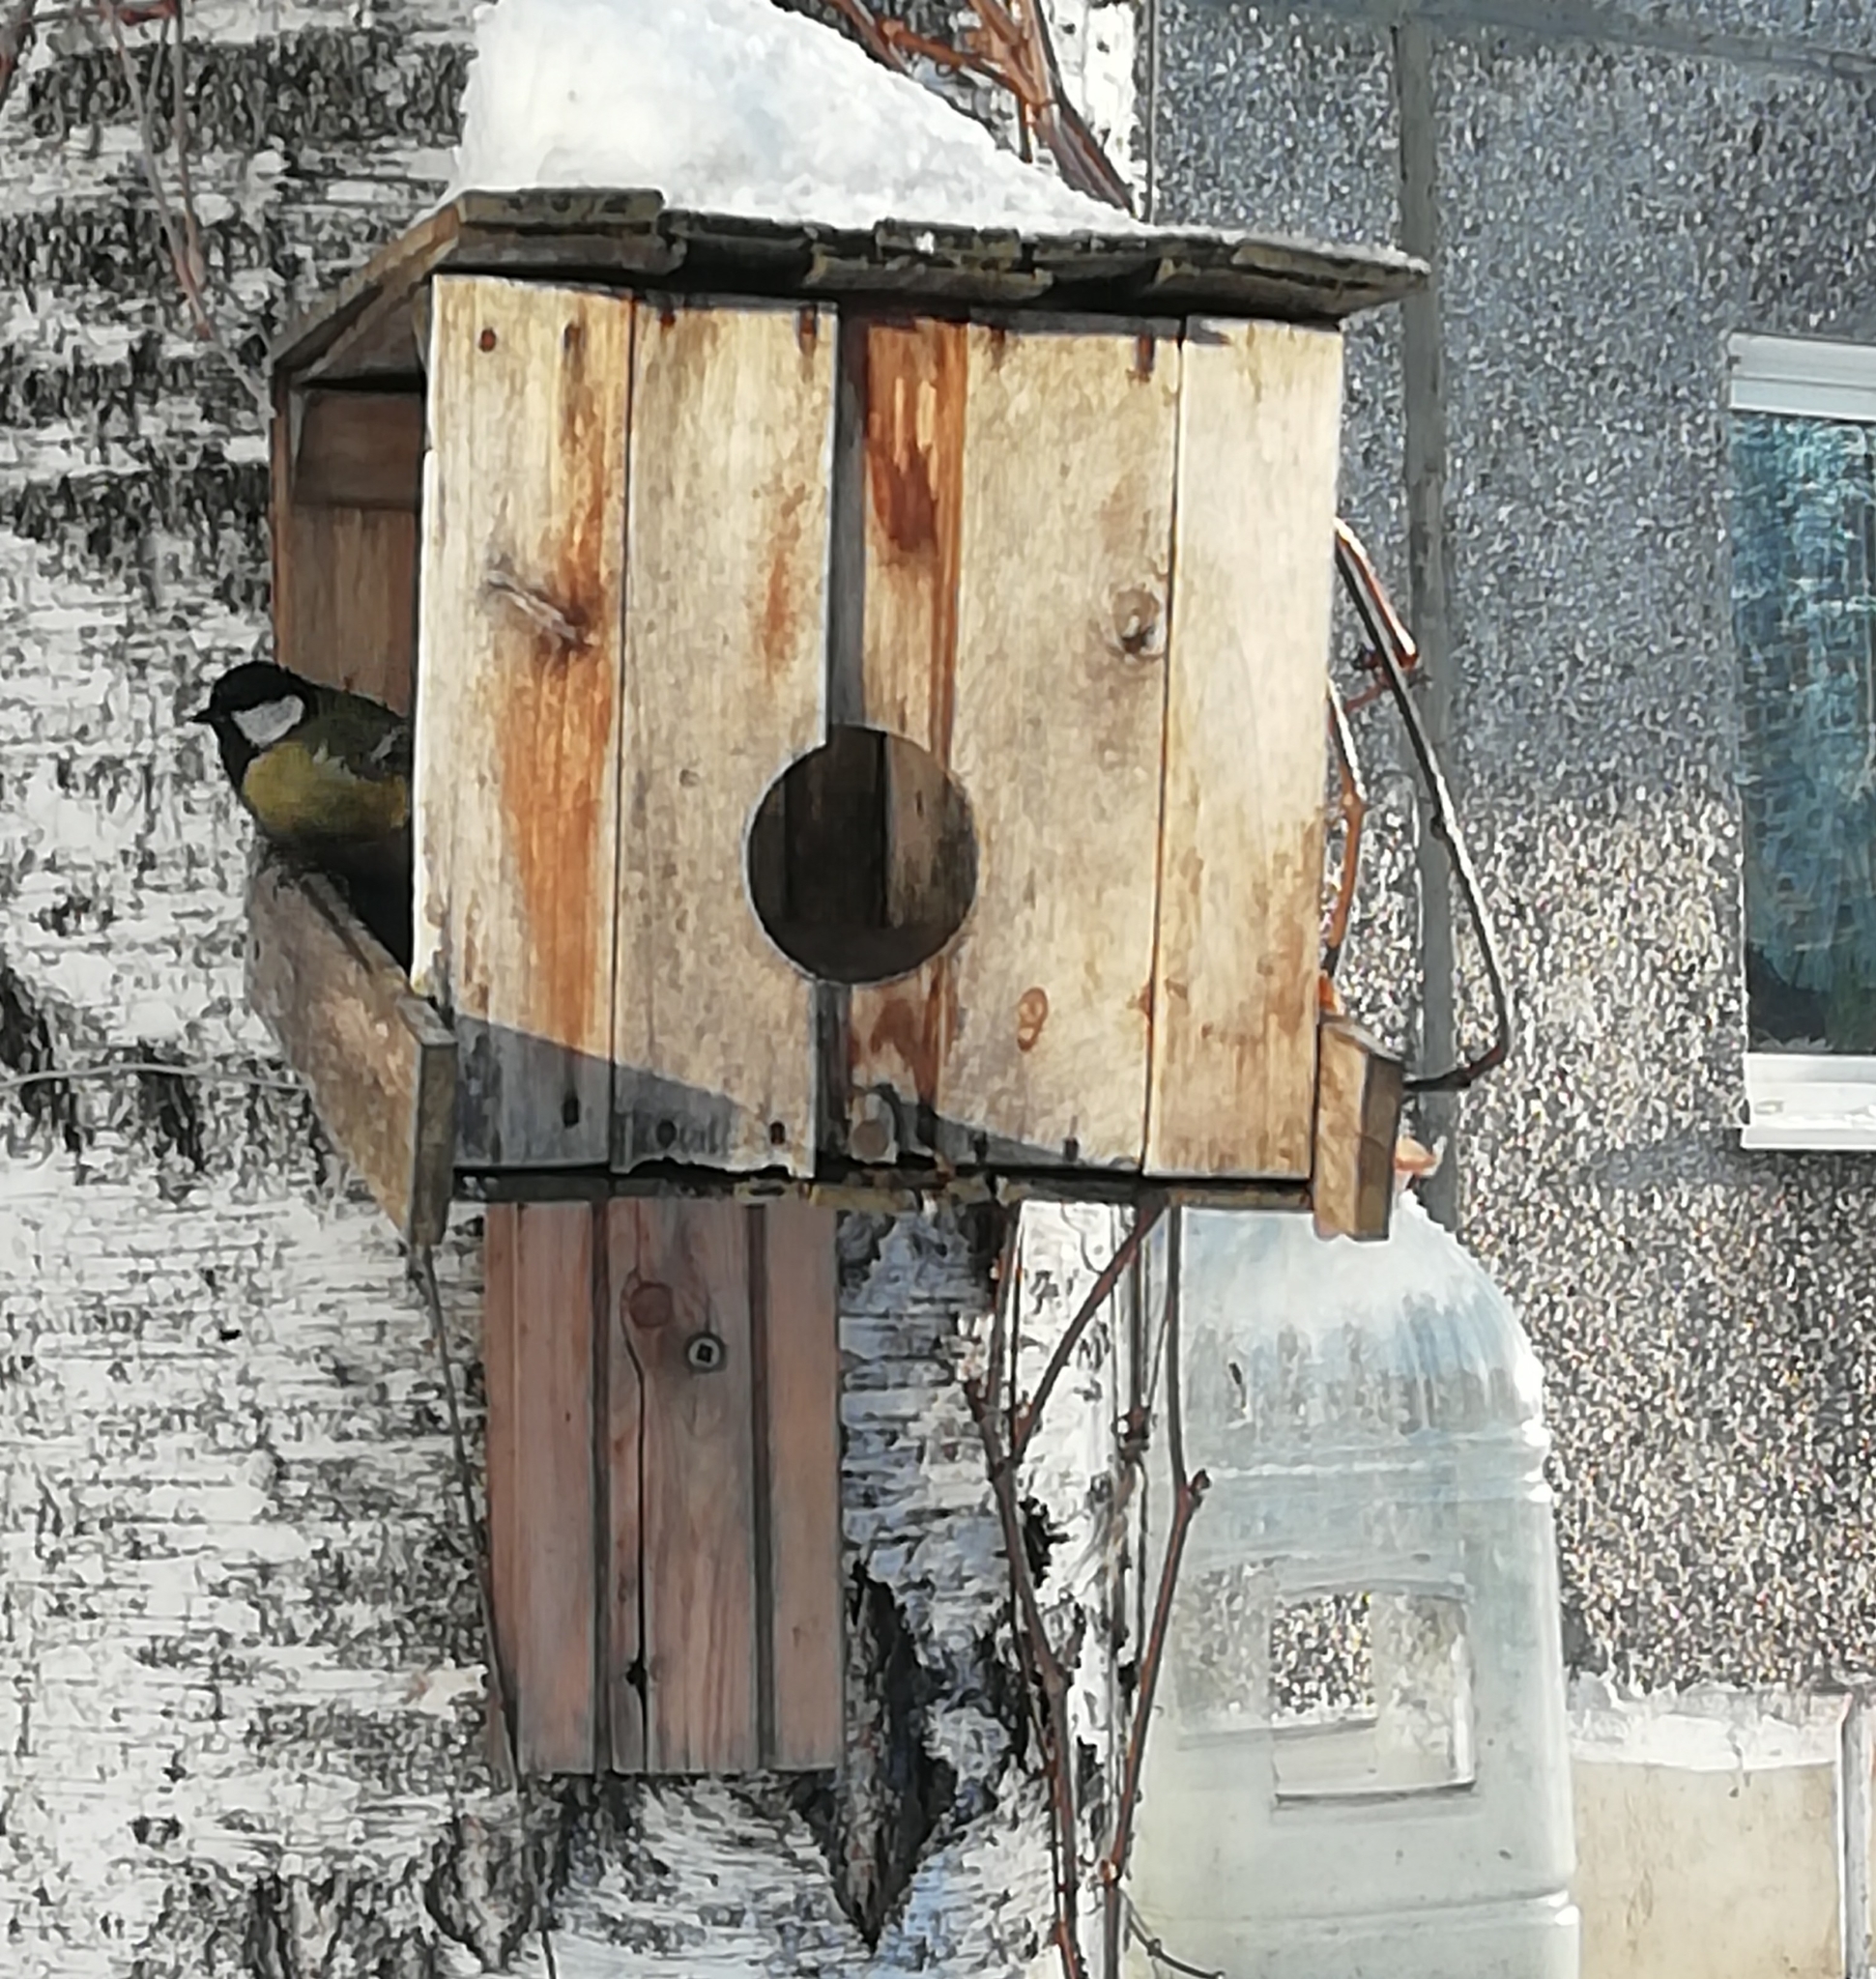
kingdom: Animalia
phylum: Chordata
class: Aves
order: Passeriformes
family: Paridae
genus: Parus
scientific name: Parus major
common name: Great tit
